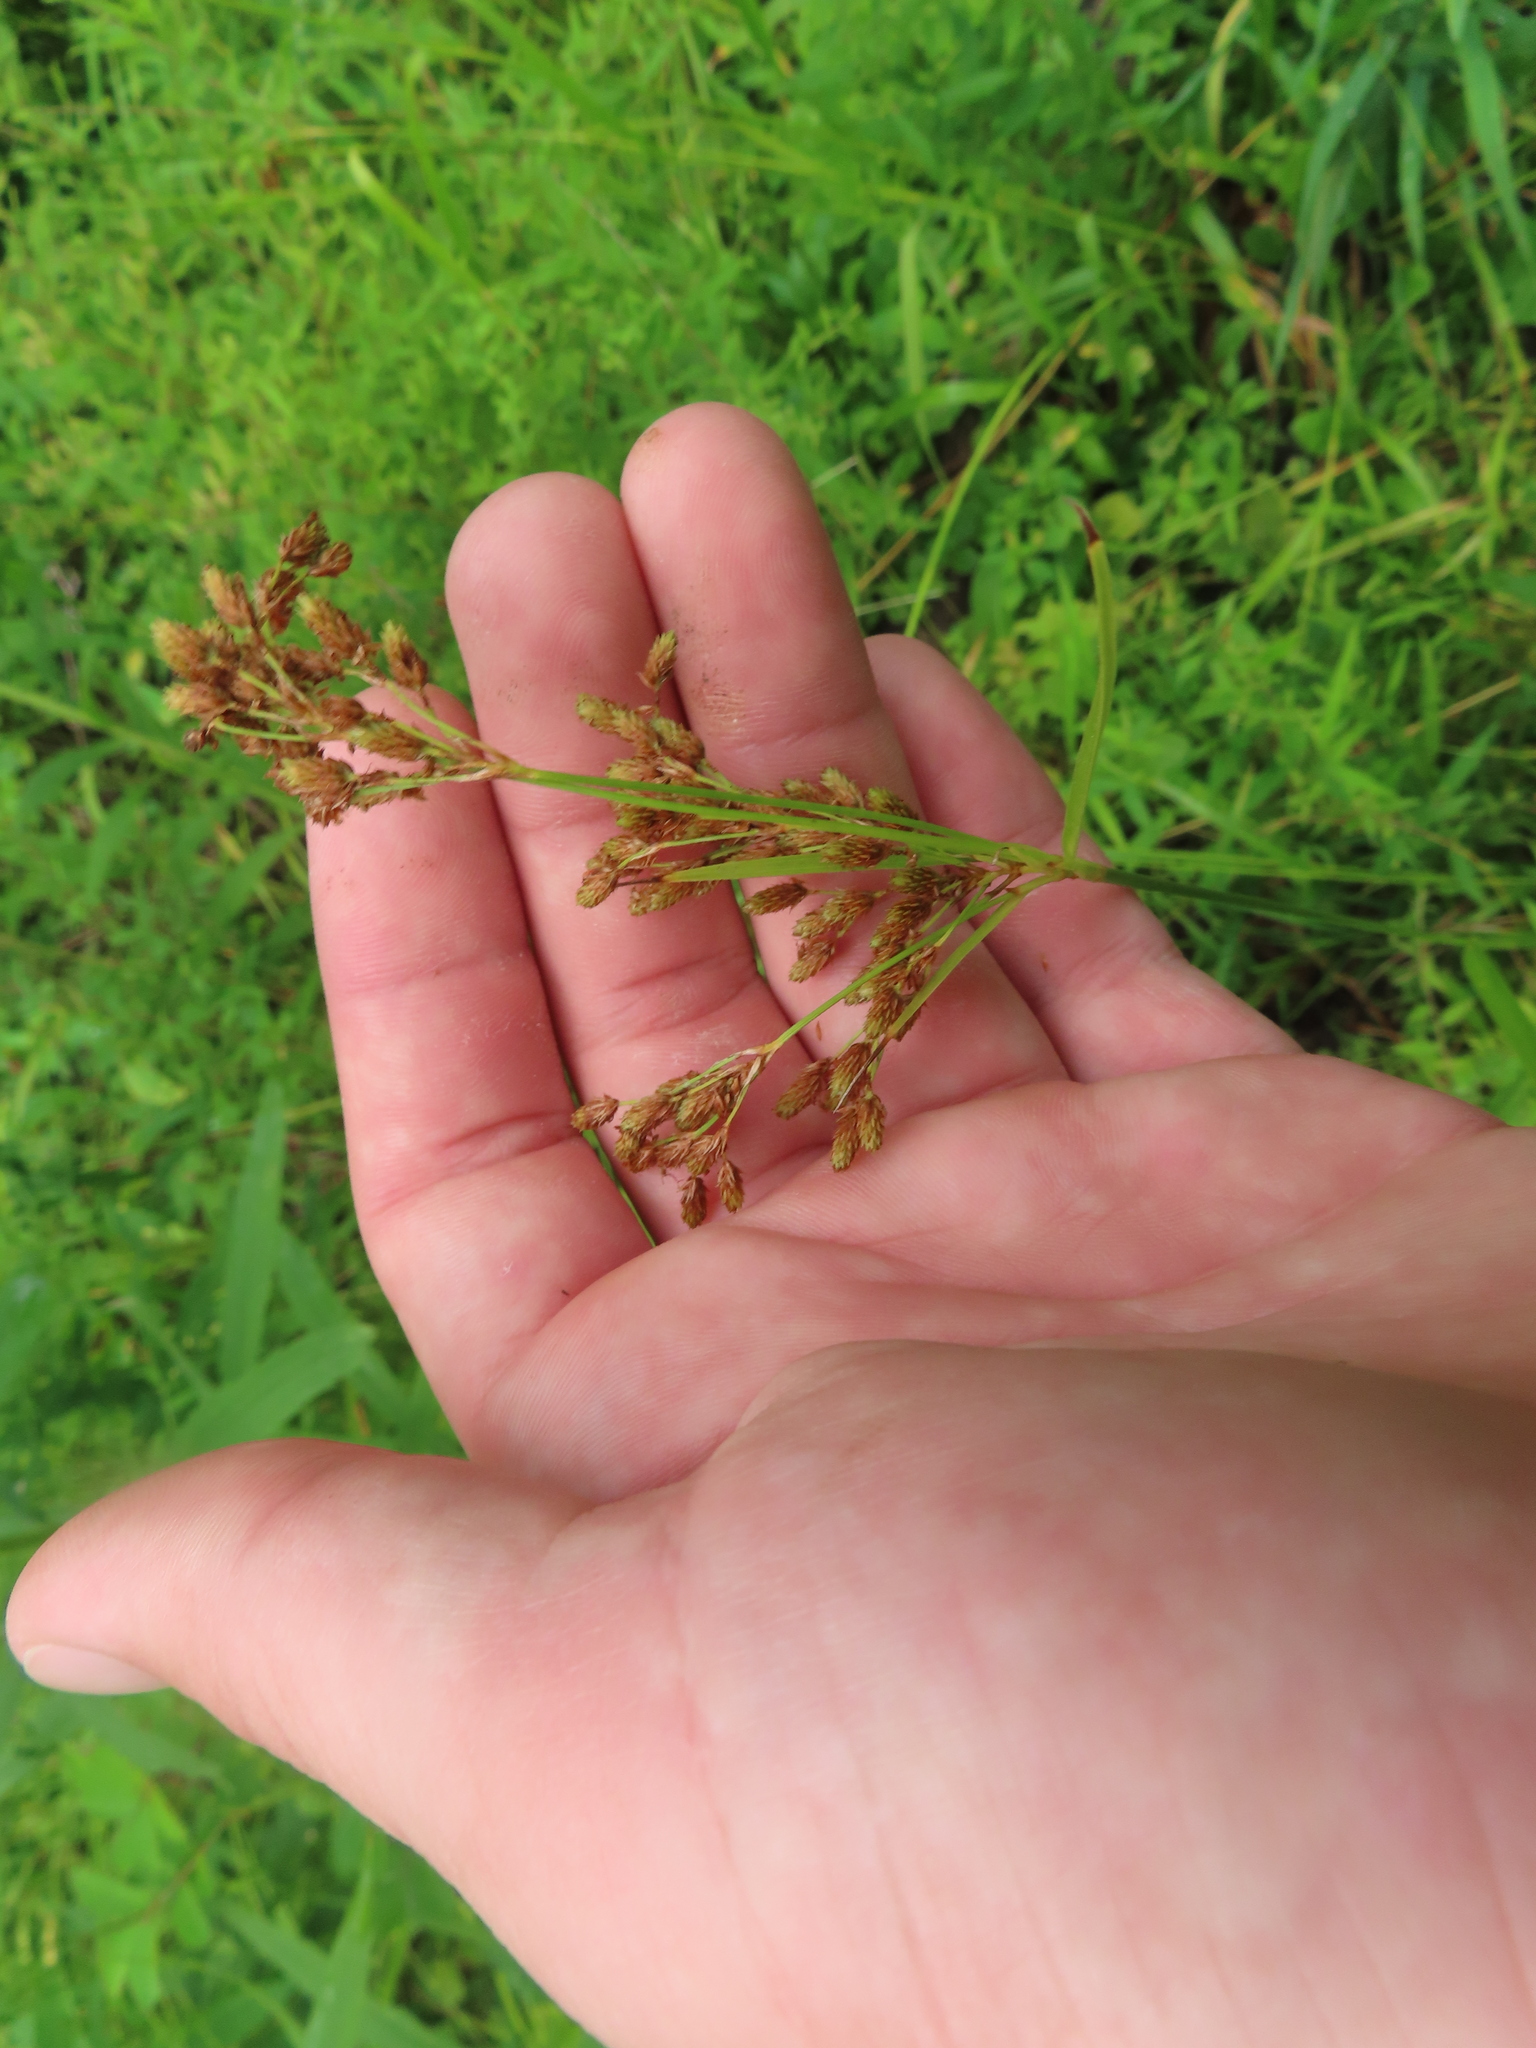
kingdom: Plantae
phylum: Tracheophyta
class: Liliopsida
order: Poales
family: Cyperaceae
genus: Scirpus
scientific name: Scirpus pendulus
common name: Nodding bulrush
